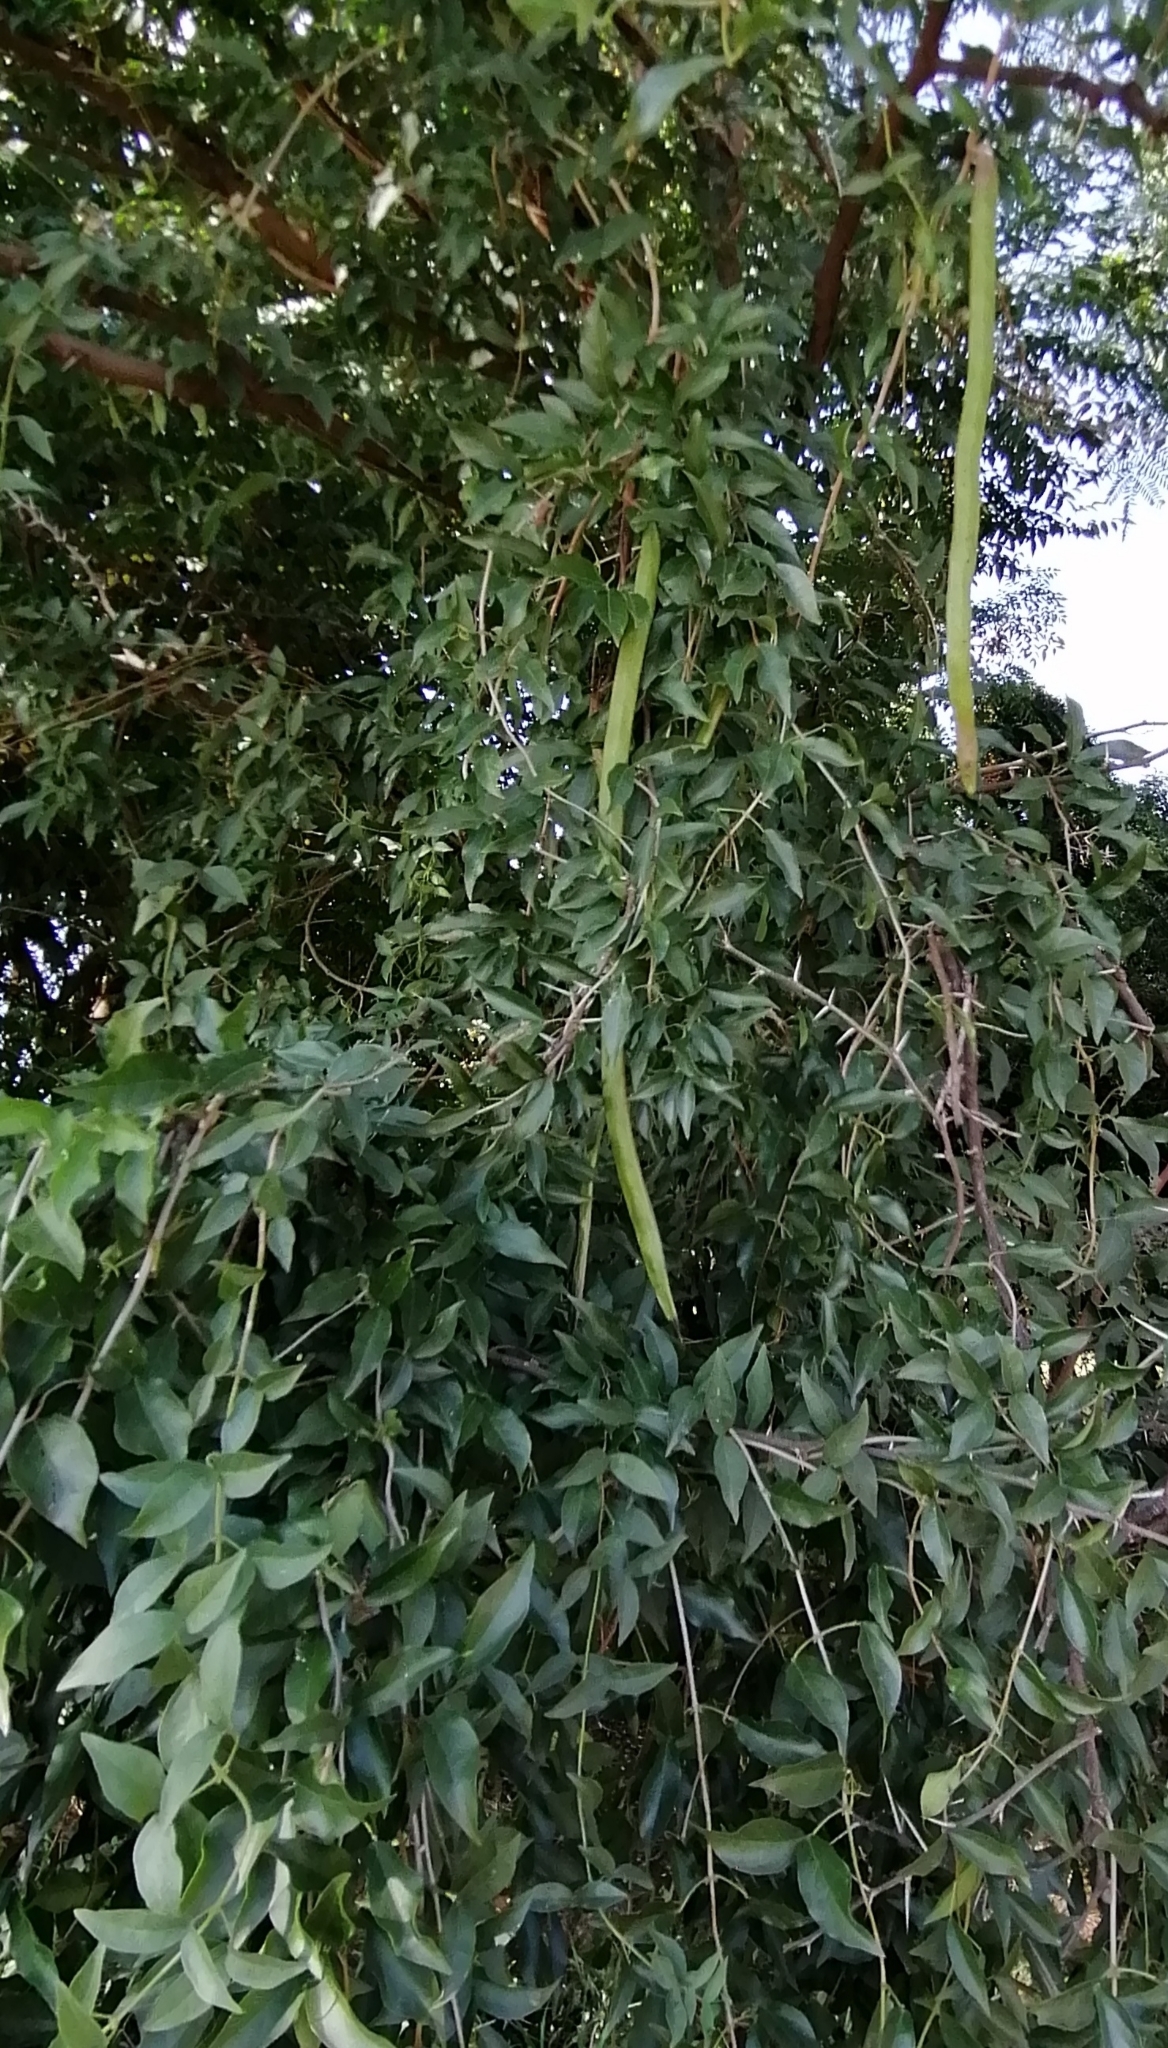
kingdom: Plantae
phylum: Tracheophyta
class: Magnoliopsida
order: Lamiales
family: Bignoniaceae
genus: Dolichandra
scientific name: Dolichandra unguis-cati
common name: Catclaw vine
